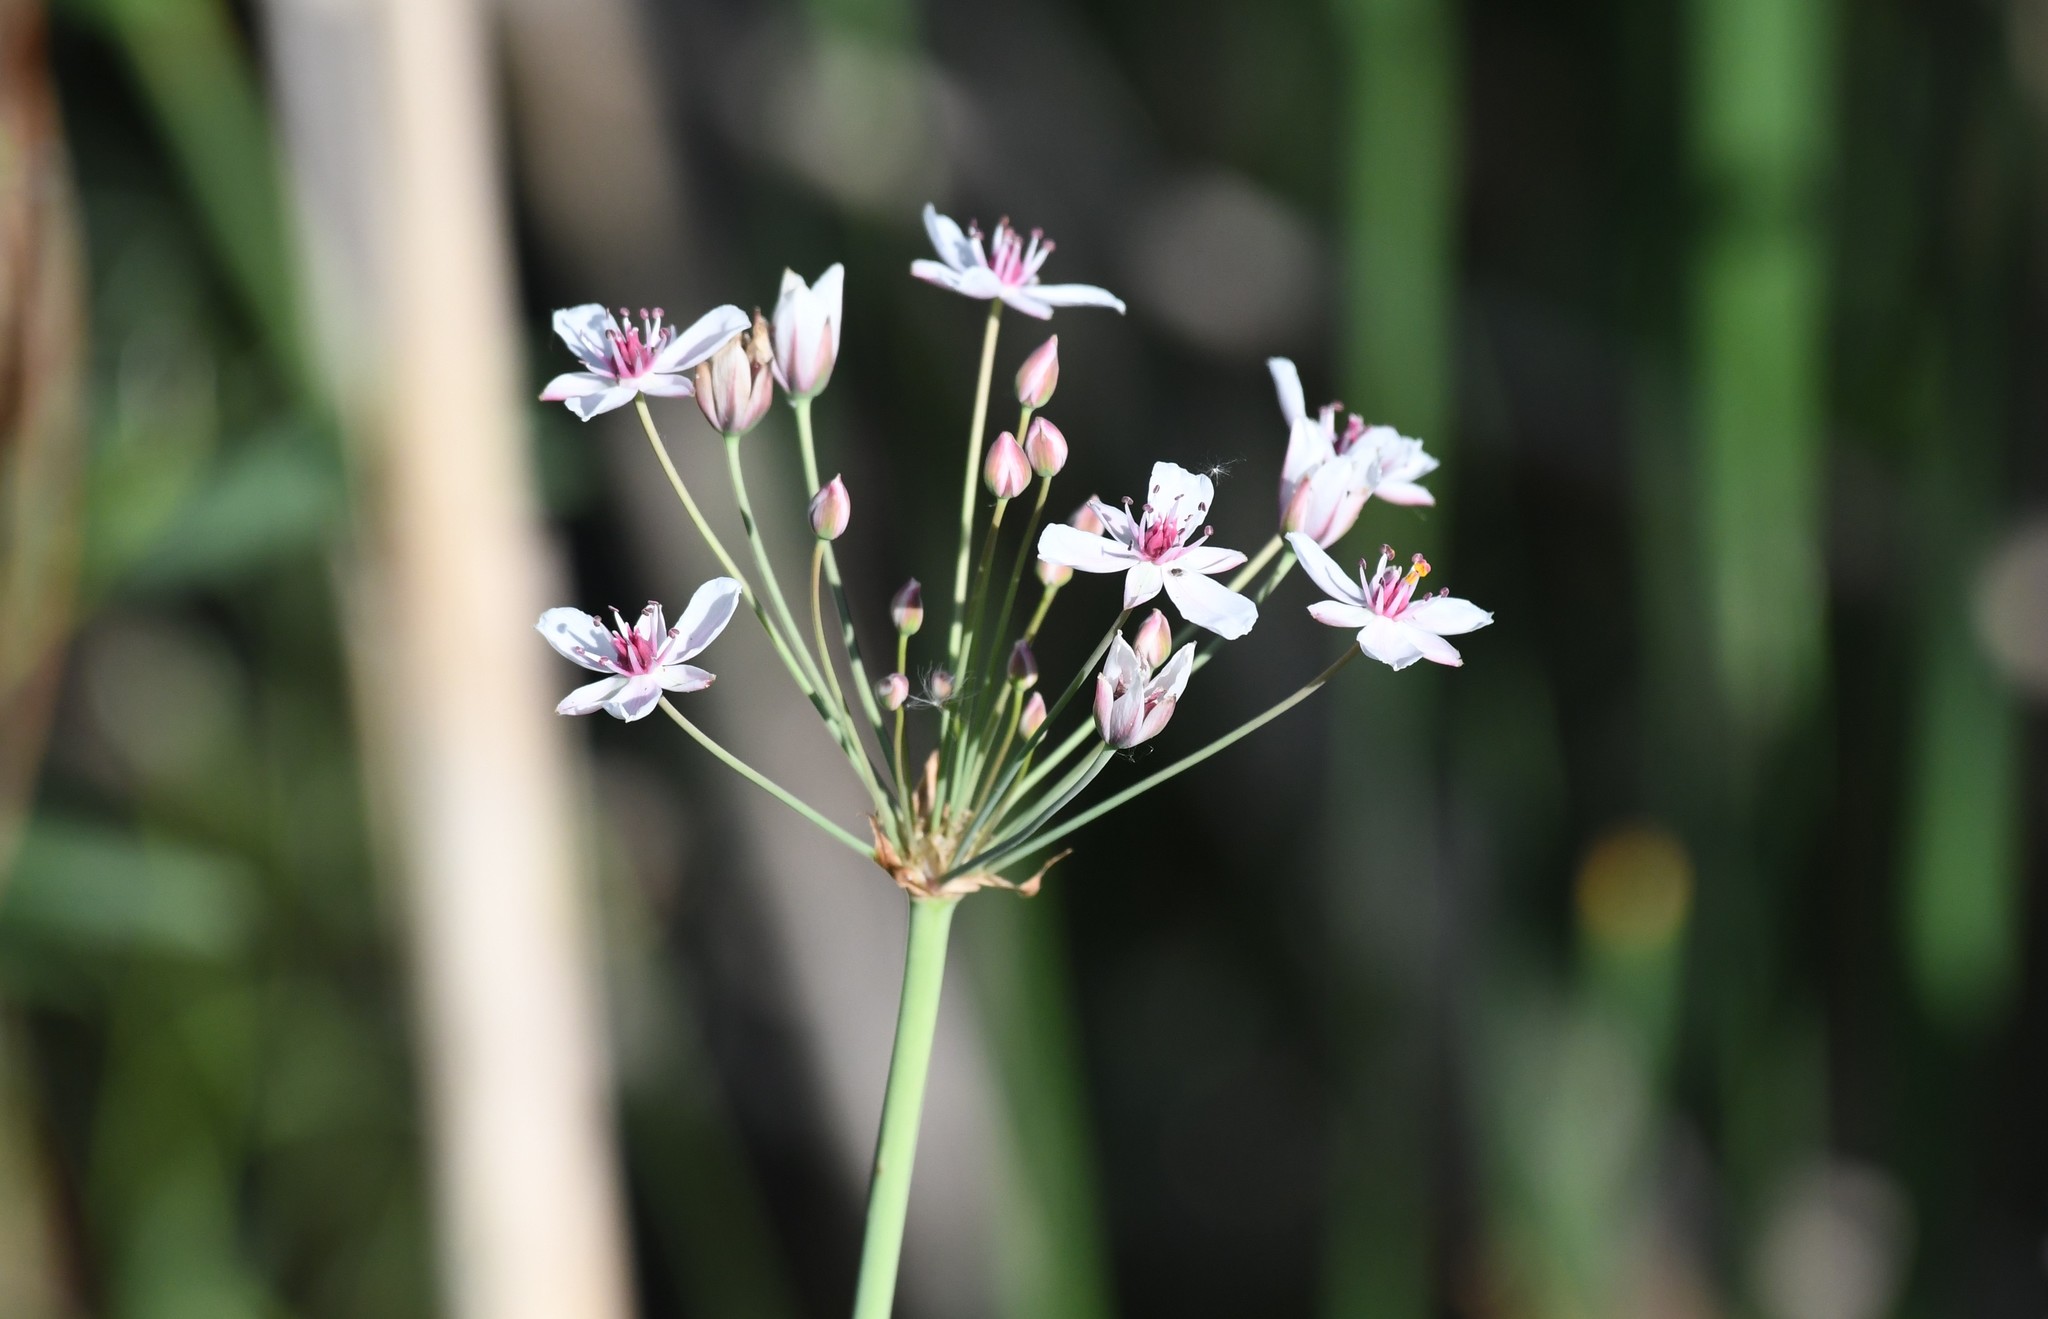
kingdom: Plantae
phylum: Tracheophyta
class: Liliopsida
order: Alismatales
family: Butomaceae
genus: Butomus
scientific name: Butomus umbellatus
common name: Flowering-rush
